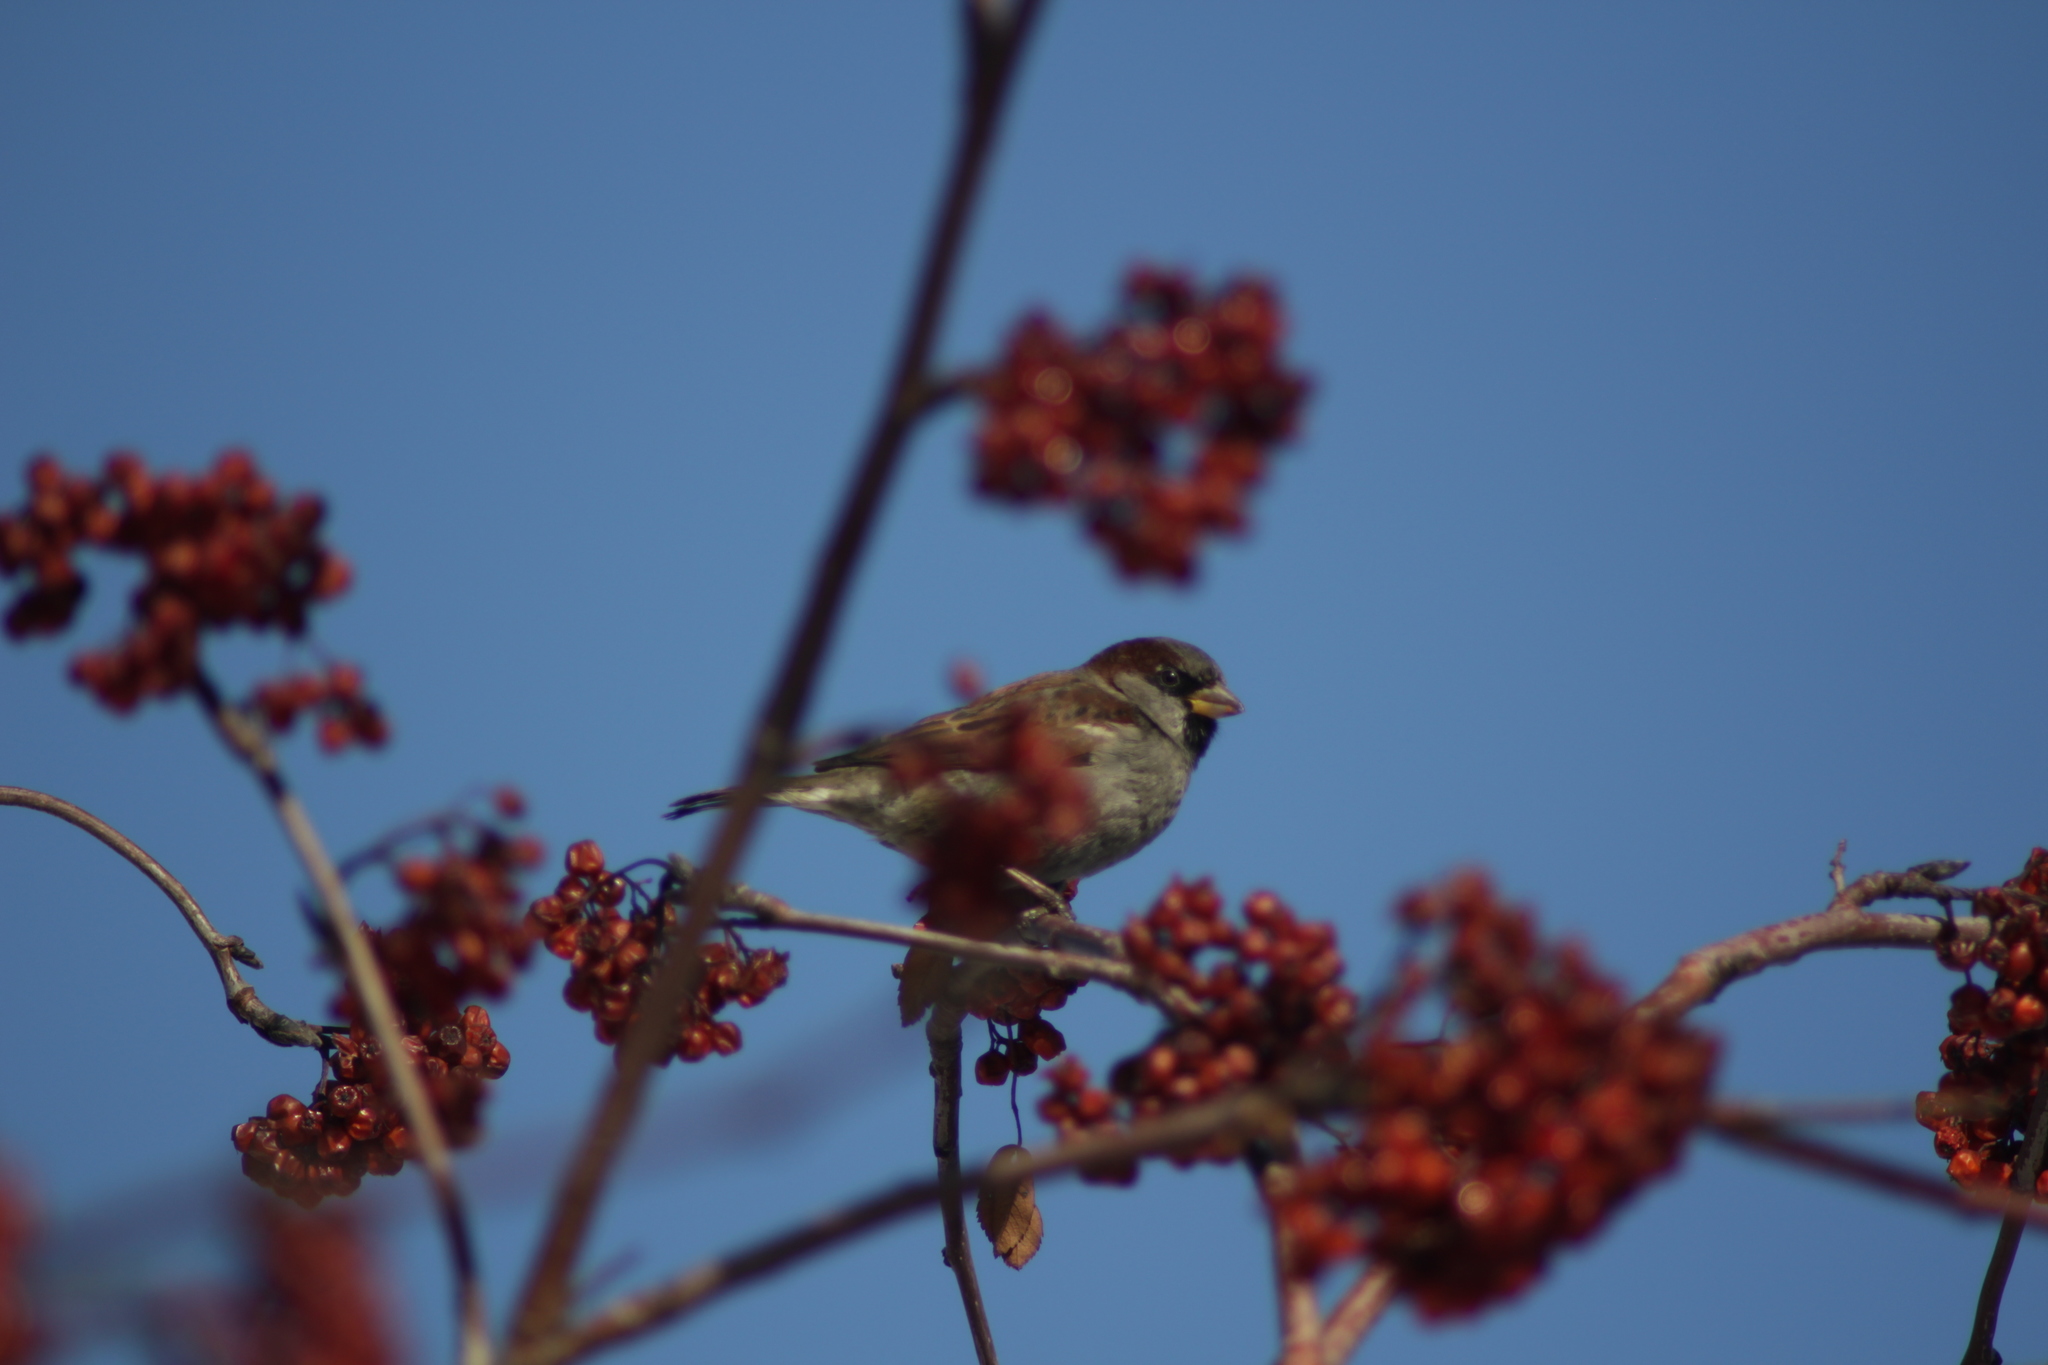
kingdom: Animalia
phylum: Chordata
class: Aves
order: Passeriformes
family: Passeridae
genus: Passer
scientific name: Passer domesticus
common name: House sparrow
